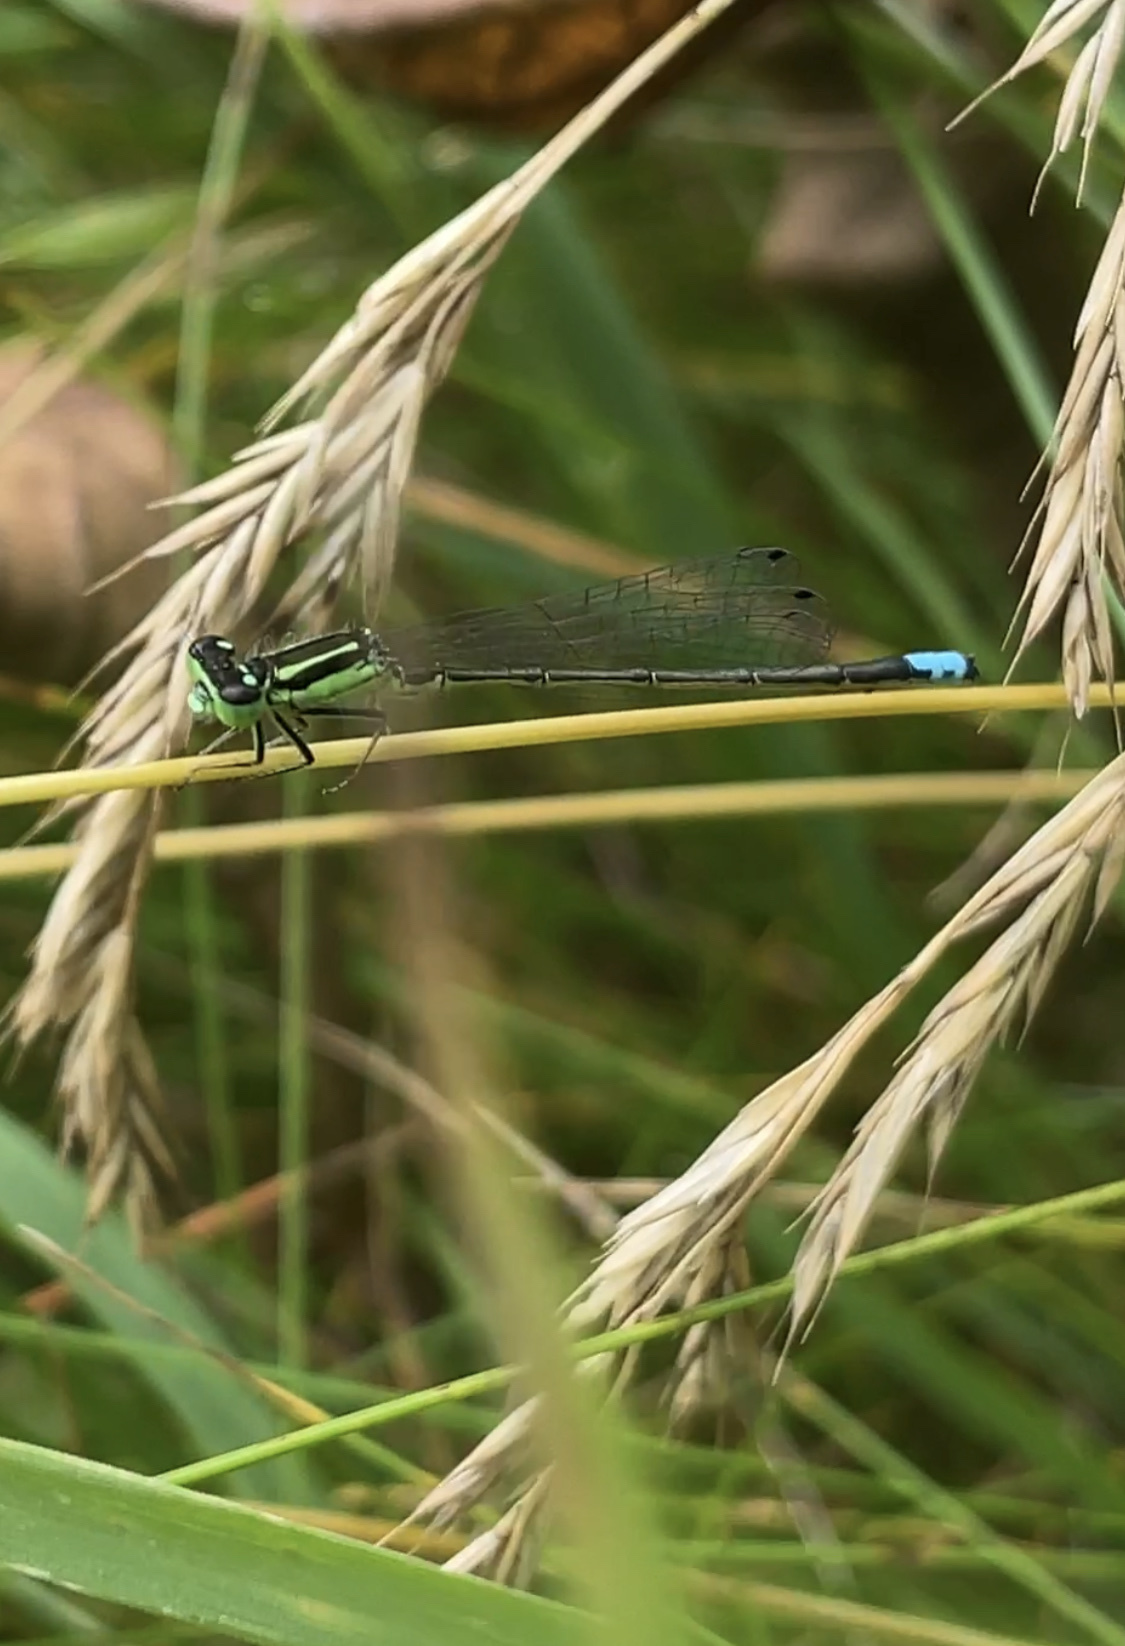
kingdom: Animalia
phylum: Arthropoda
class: Insecta
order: Odonata
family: Coenagrionidae
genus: Ischnura
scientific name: Ischnura verticalis
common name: Eastern forktail
